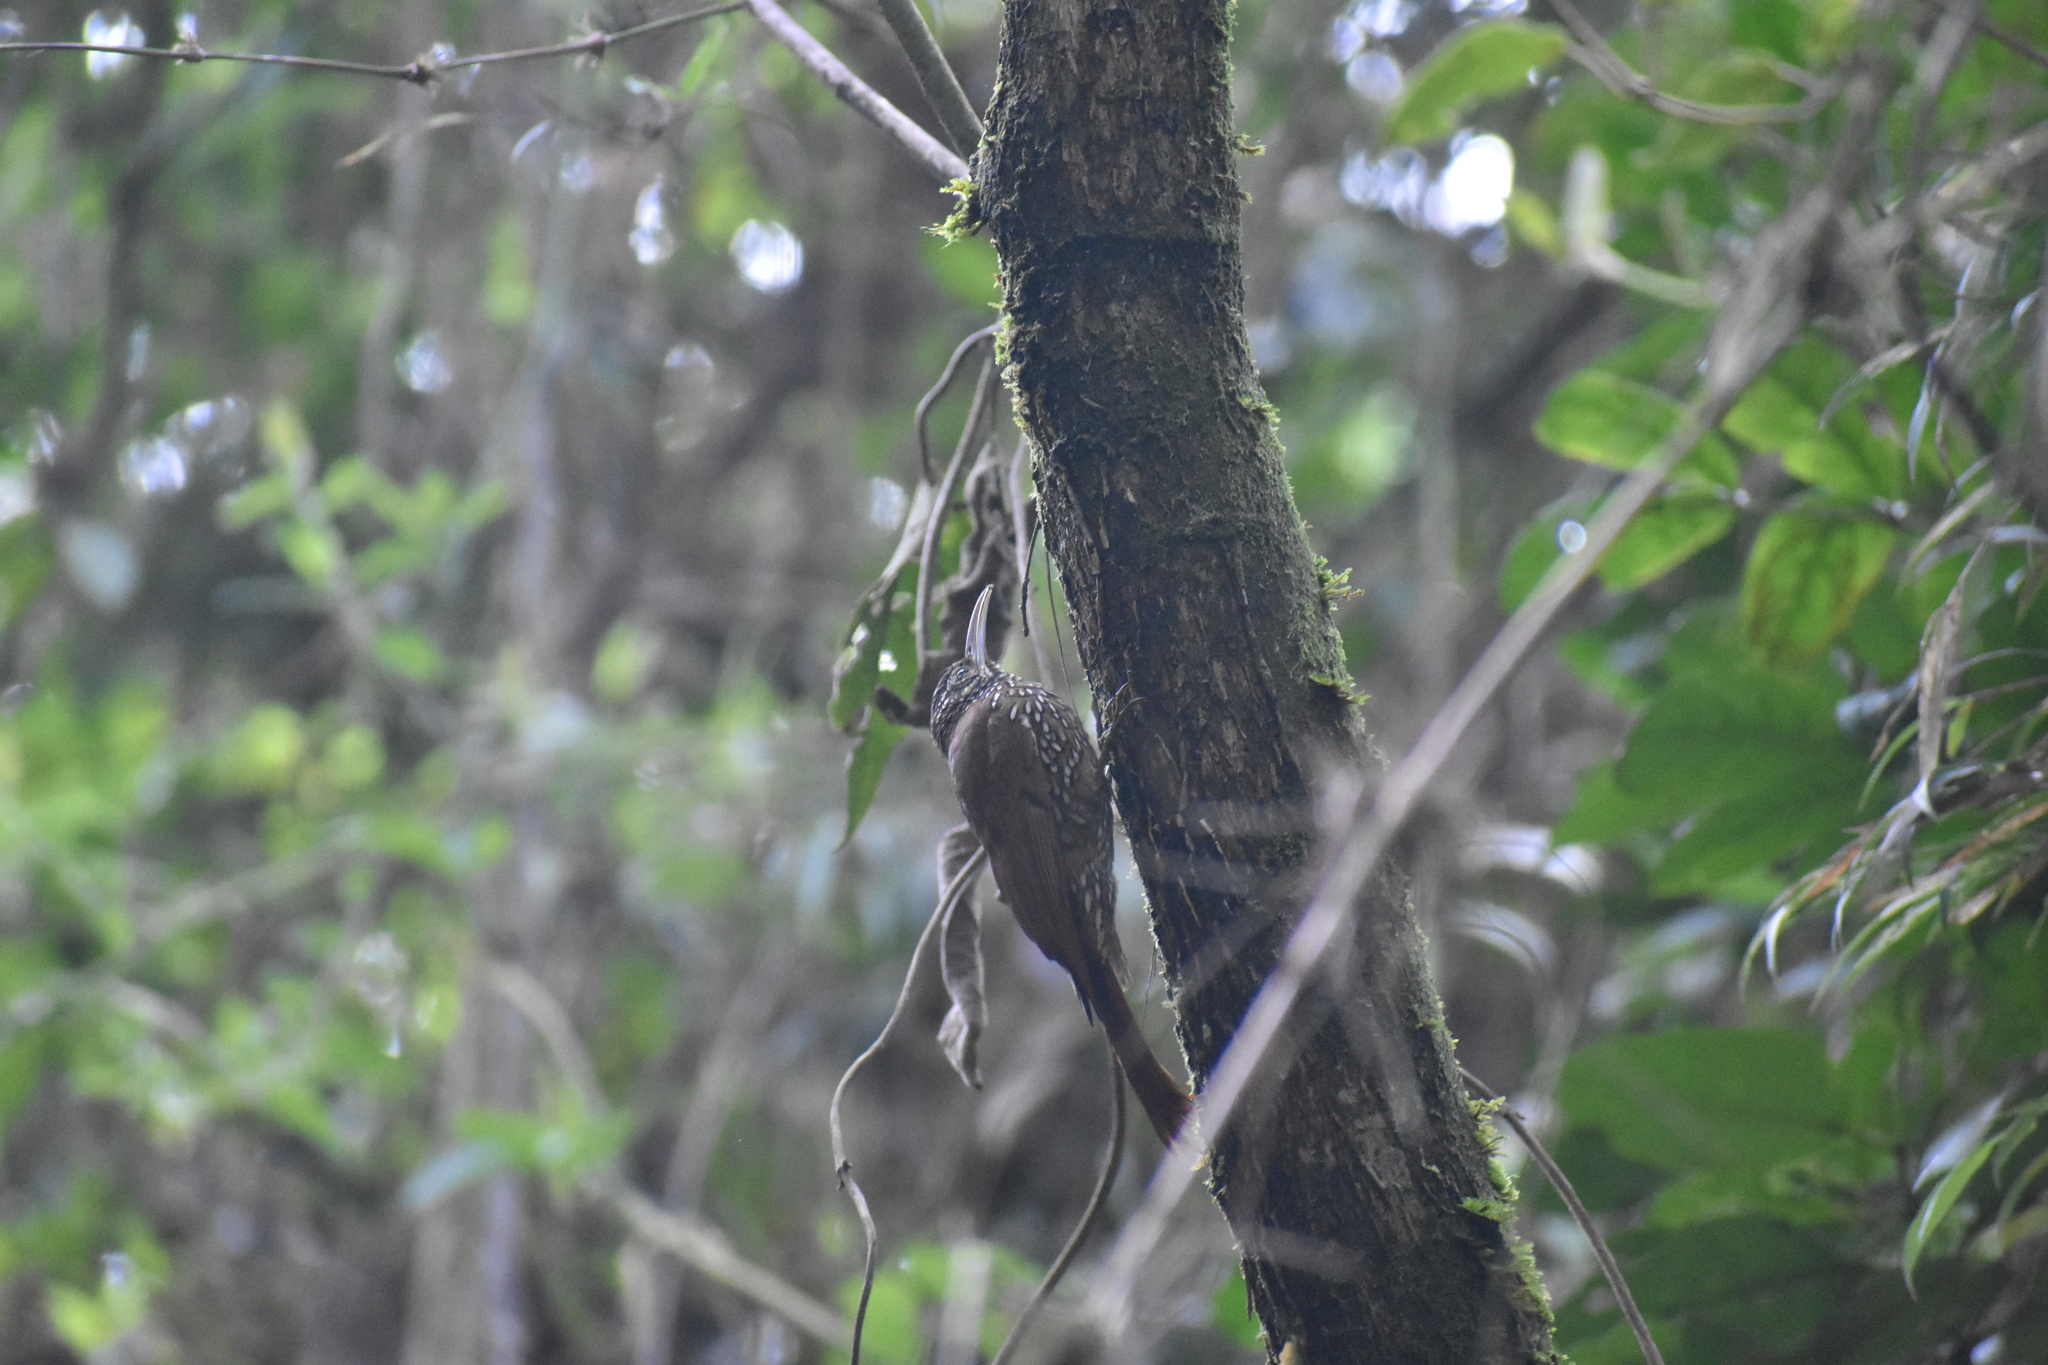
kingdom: Animalia
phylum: Chordata
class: Aves
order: Passeriformes
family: Furnariidae
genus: Lepidocolaptes
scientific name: Lepidocolaptes lacrymiger
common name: Montane woodcreeper
